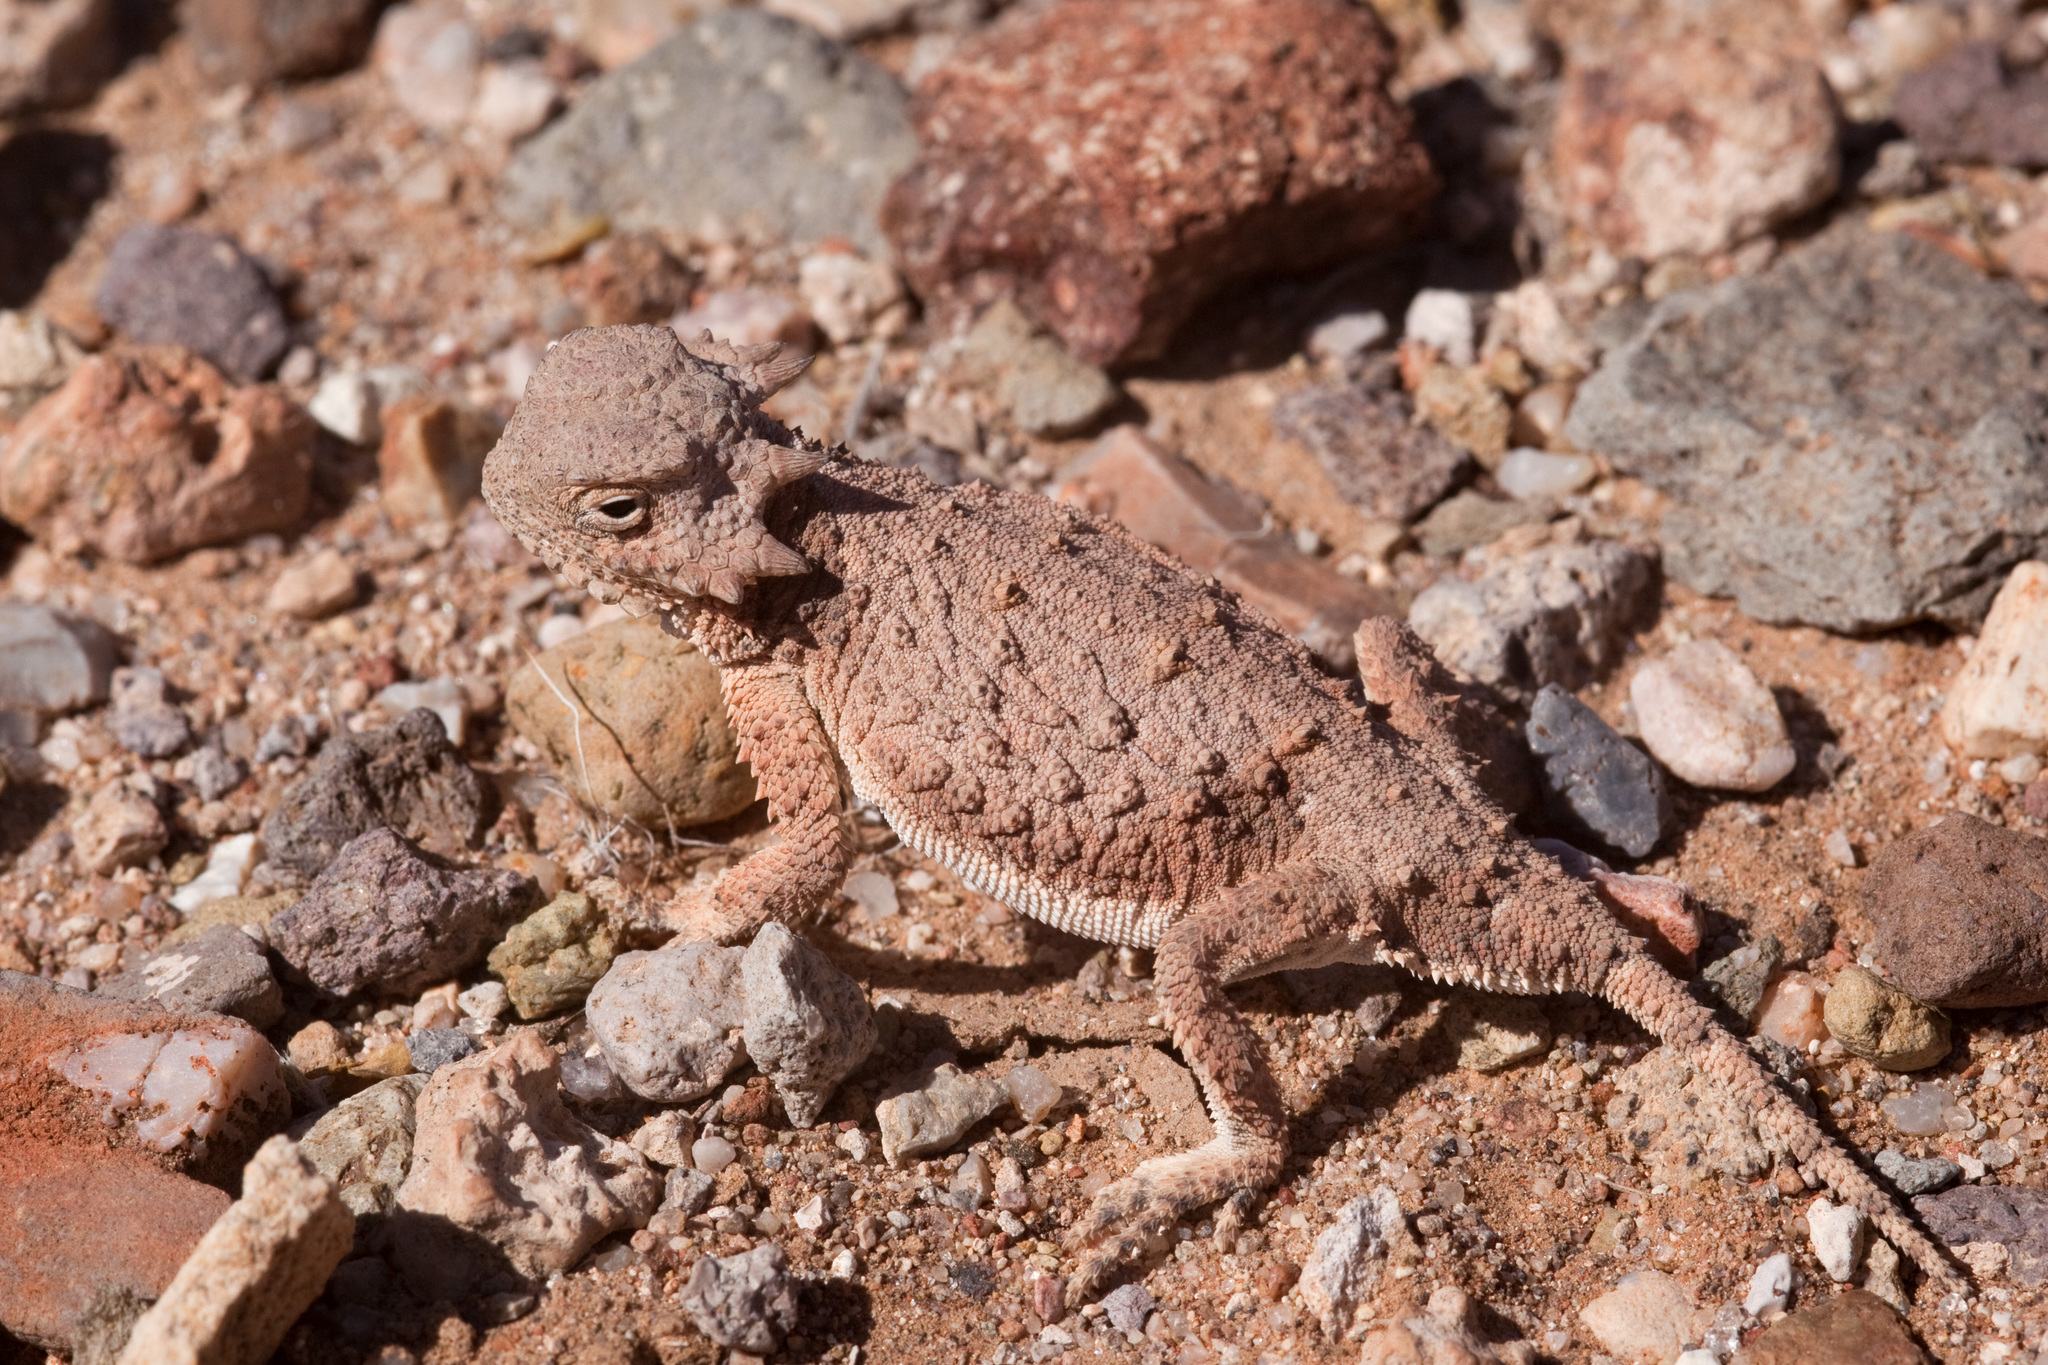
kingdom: Animalia
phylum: Chordata
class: Squamata
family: Phrynosomatidae
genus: Phrynosoma
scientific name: Phrynosoma modestum
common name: Roundtail horned lizard
